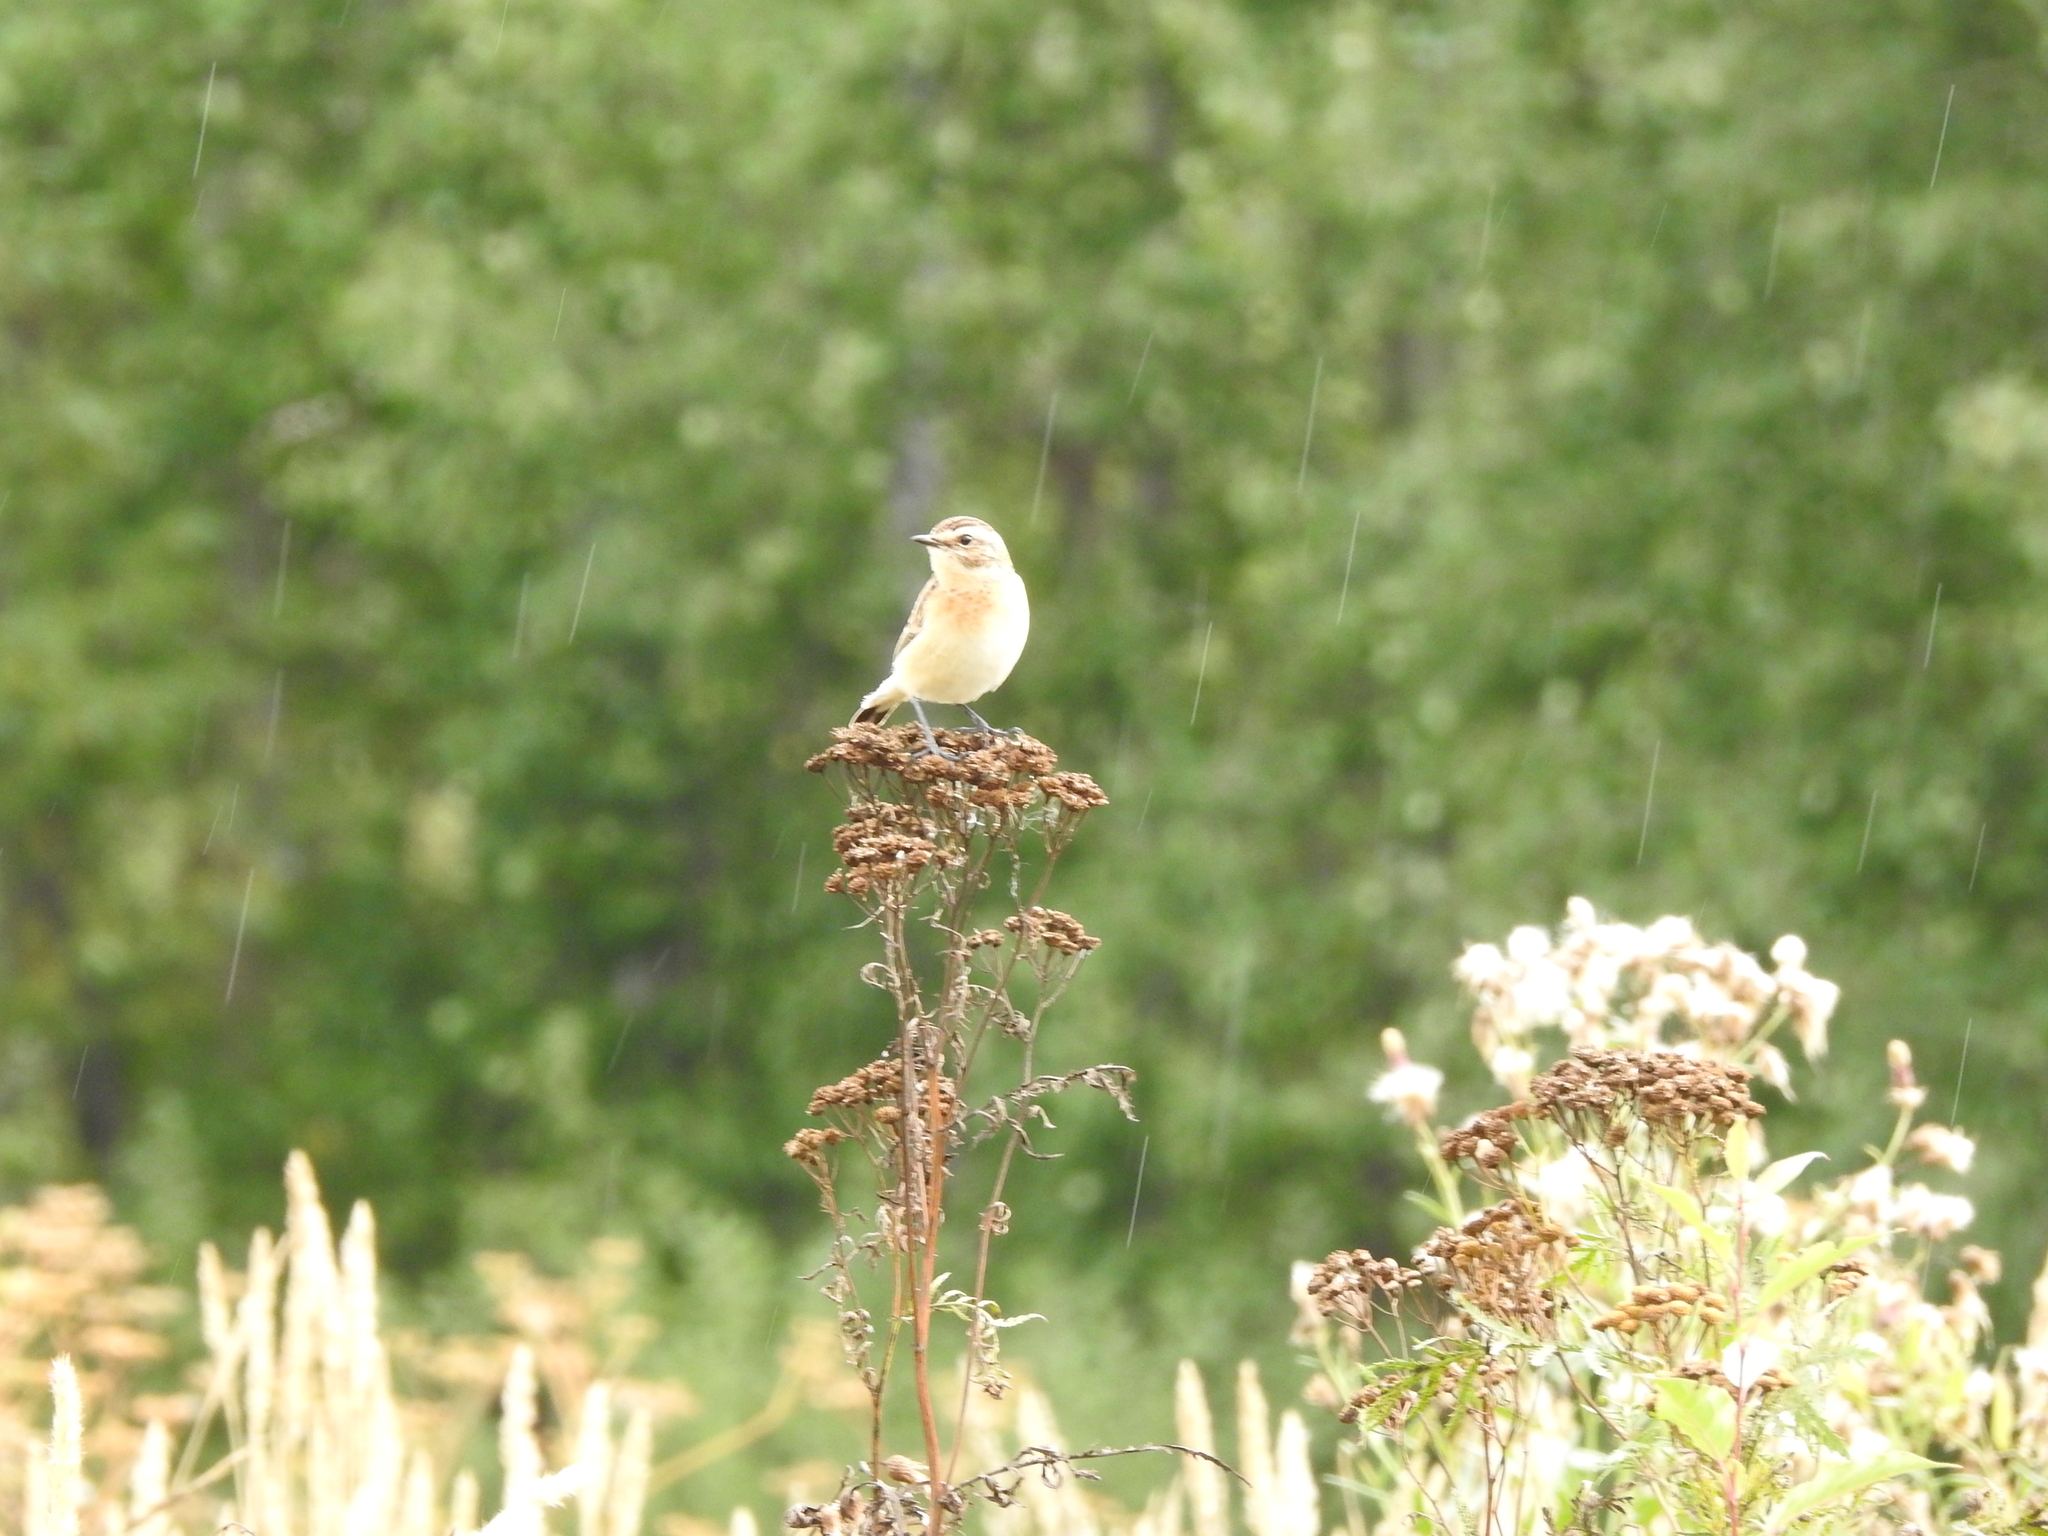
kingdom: Animalia
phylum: Chordata
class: Aves
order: Passeriformes
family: Muscicapidae
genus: Saxicola
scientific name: Saxicola rubetra
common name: Whinchat
